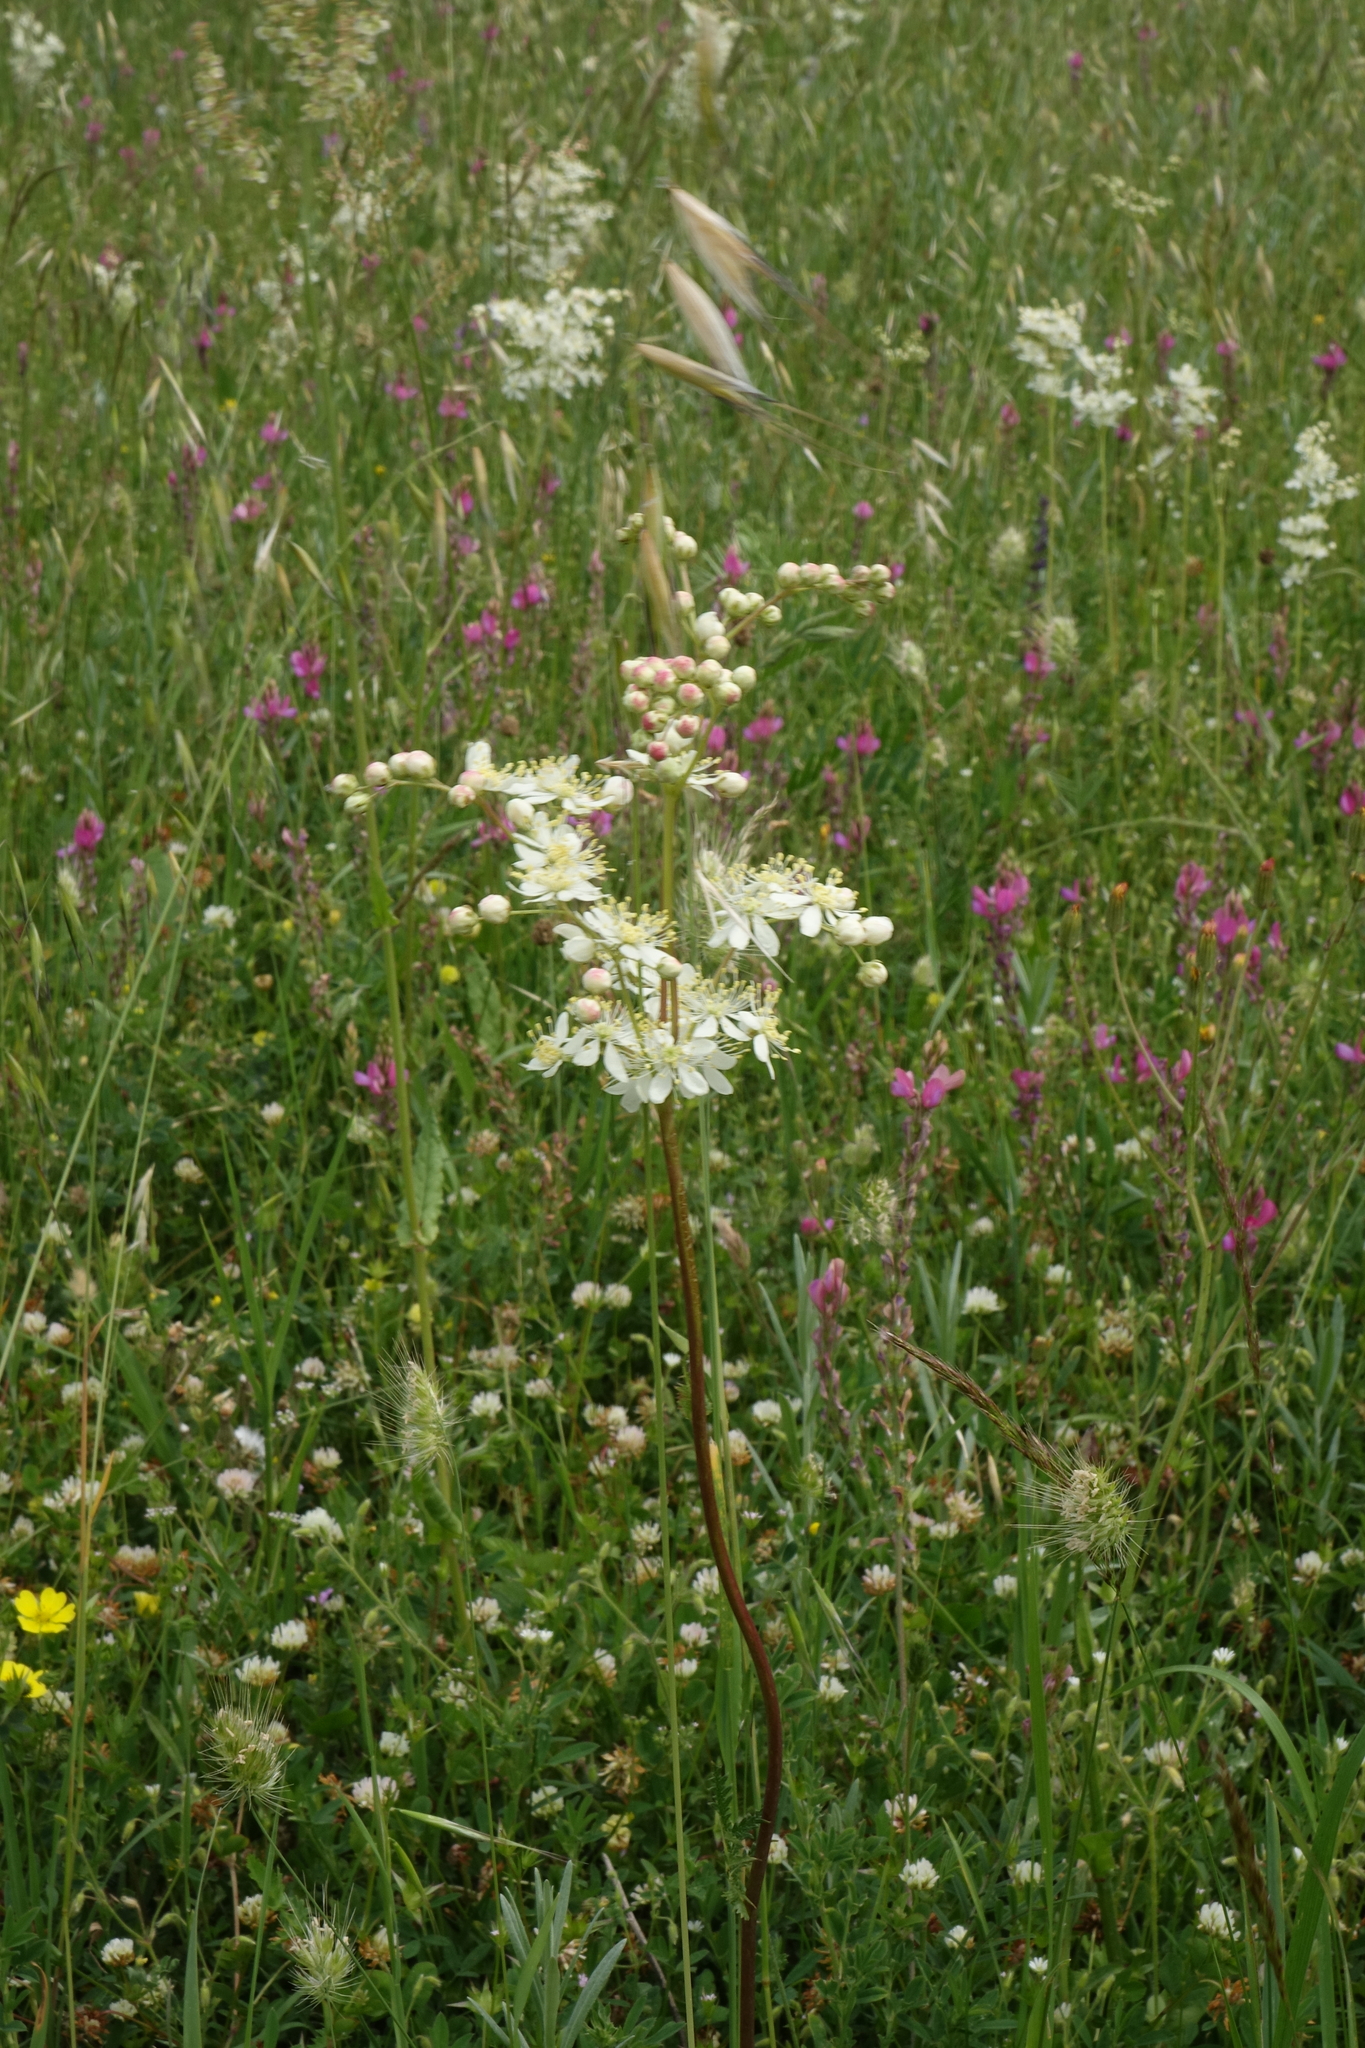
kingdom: Plantae
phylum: Tracheophyta
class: Magnoliopsida
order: Rosales
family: Rosaceae
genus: Filipendula
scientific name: Filipendula vulgaris
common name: Dropwort
